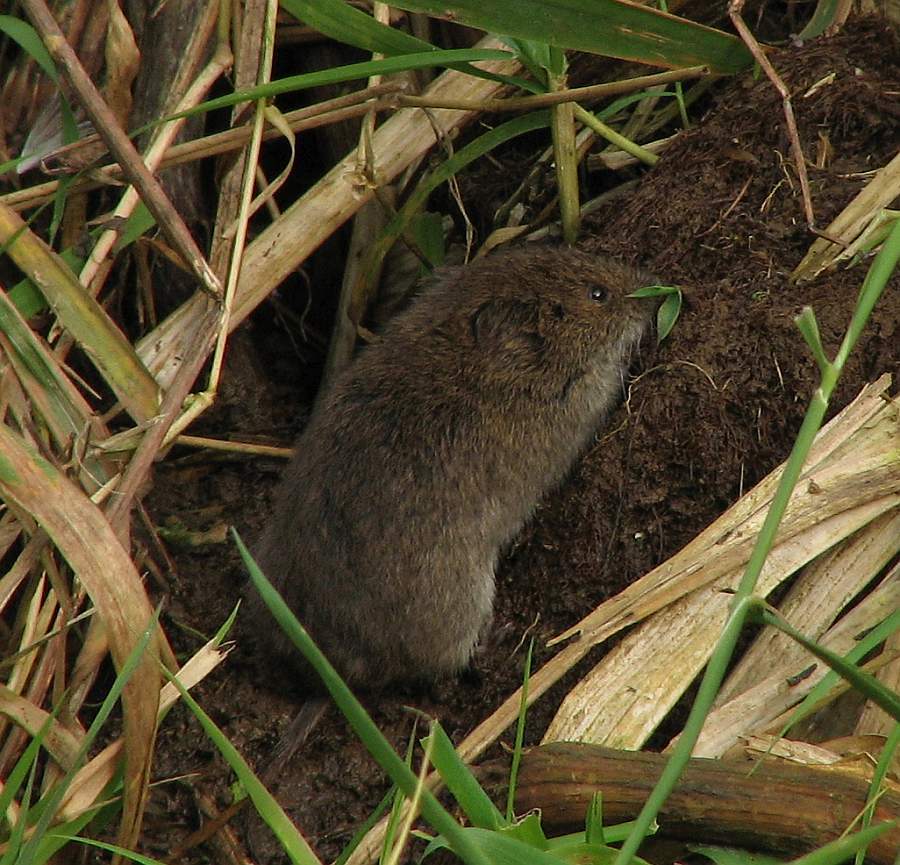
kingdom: Animalia
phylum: Chordata
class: Mammalia
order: Rodentia
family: Cricetidae
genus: Microtus
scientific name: Microtus pennsylvanicus
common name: Meadow vole
